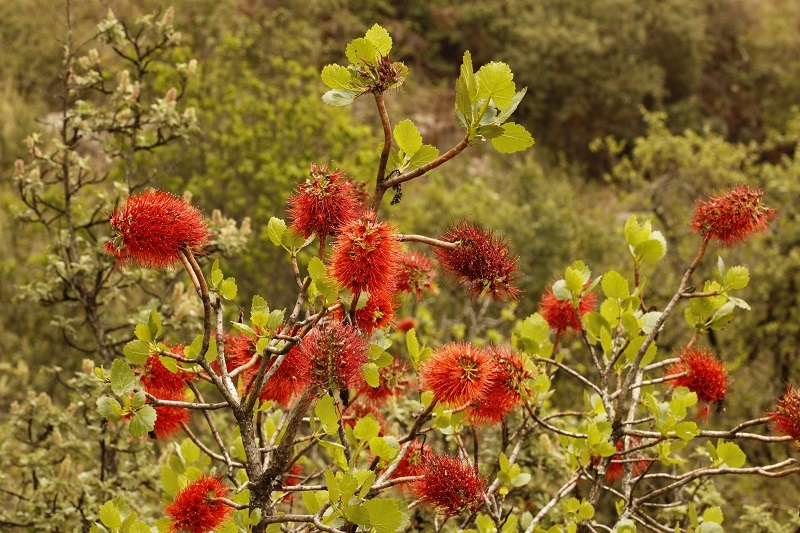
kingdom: Plantae
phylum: Tracheophyta
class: Magnoliopsida
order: Geraniales
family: Francoaceae
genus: Greyia
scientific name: Greyia sutherlandii
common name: Glossy bottlebrush
